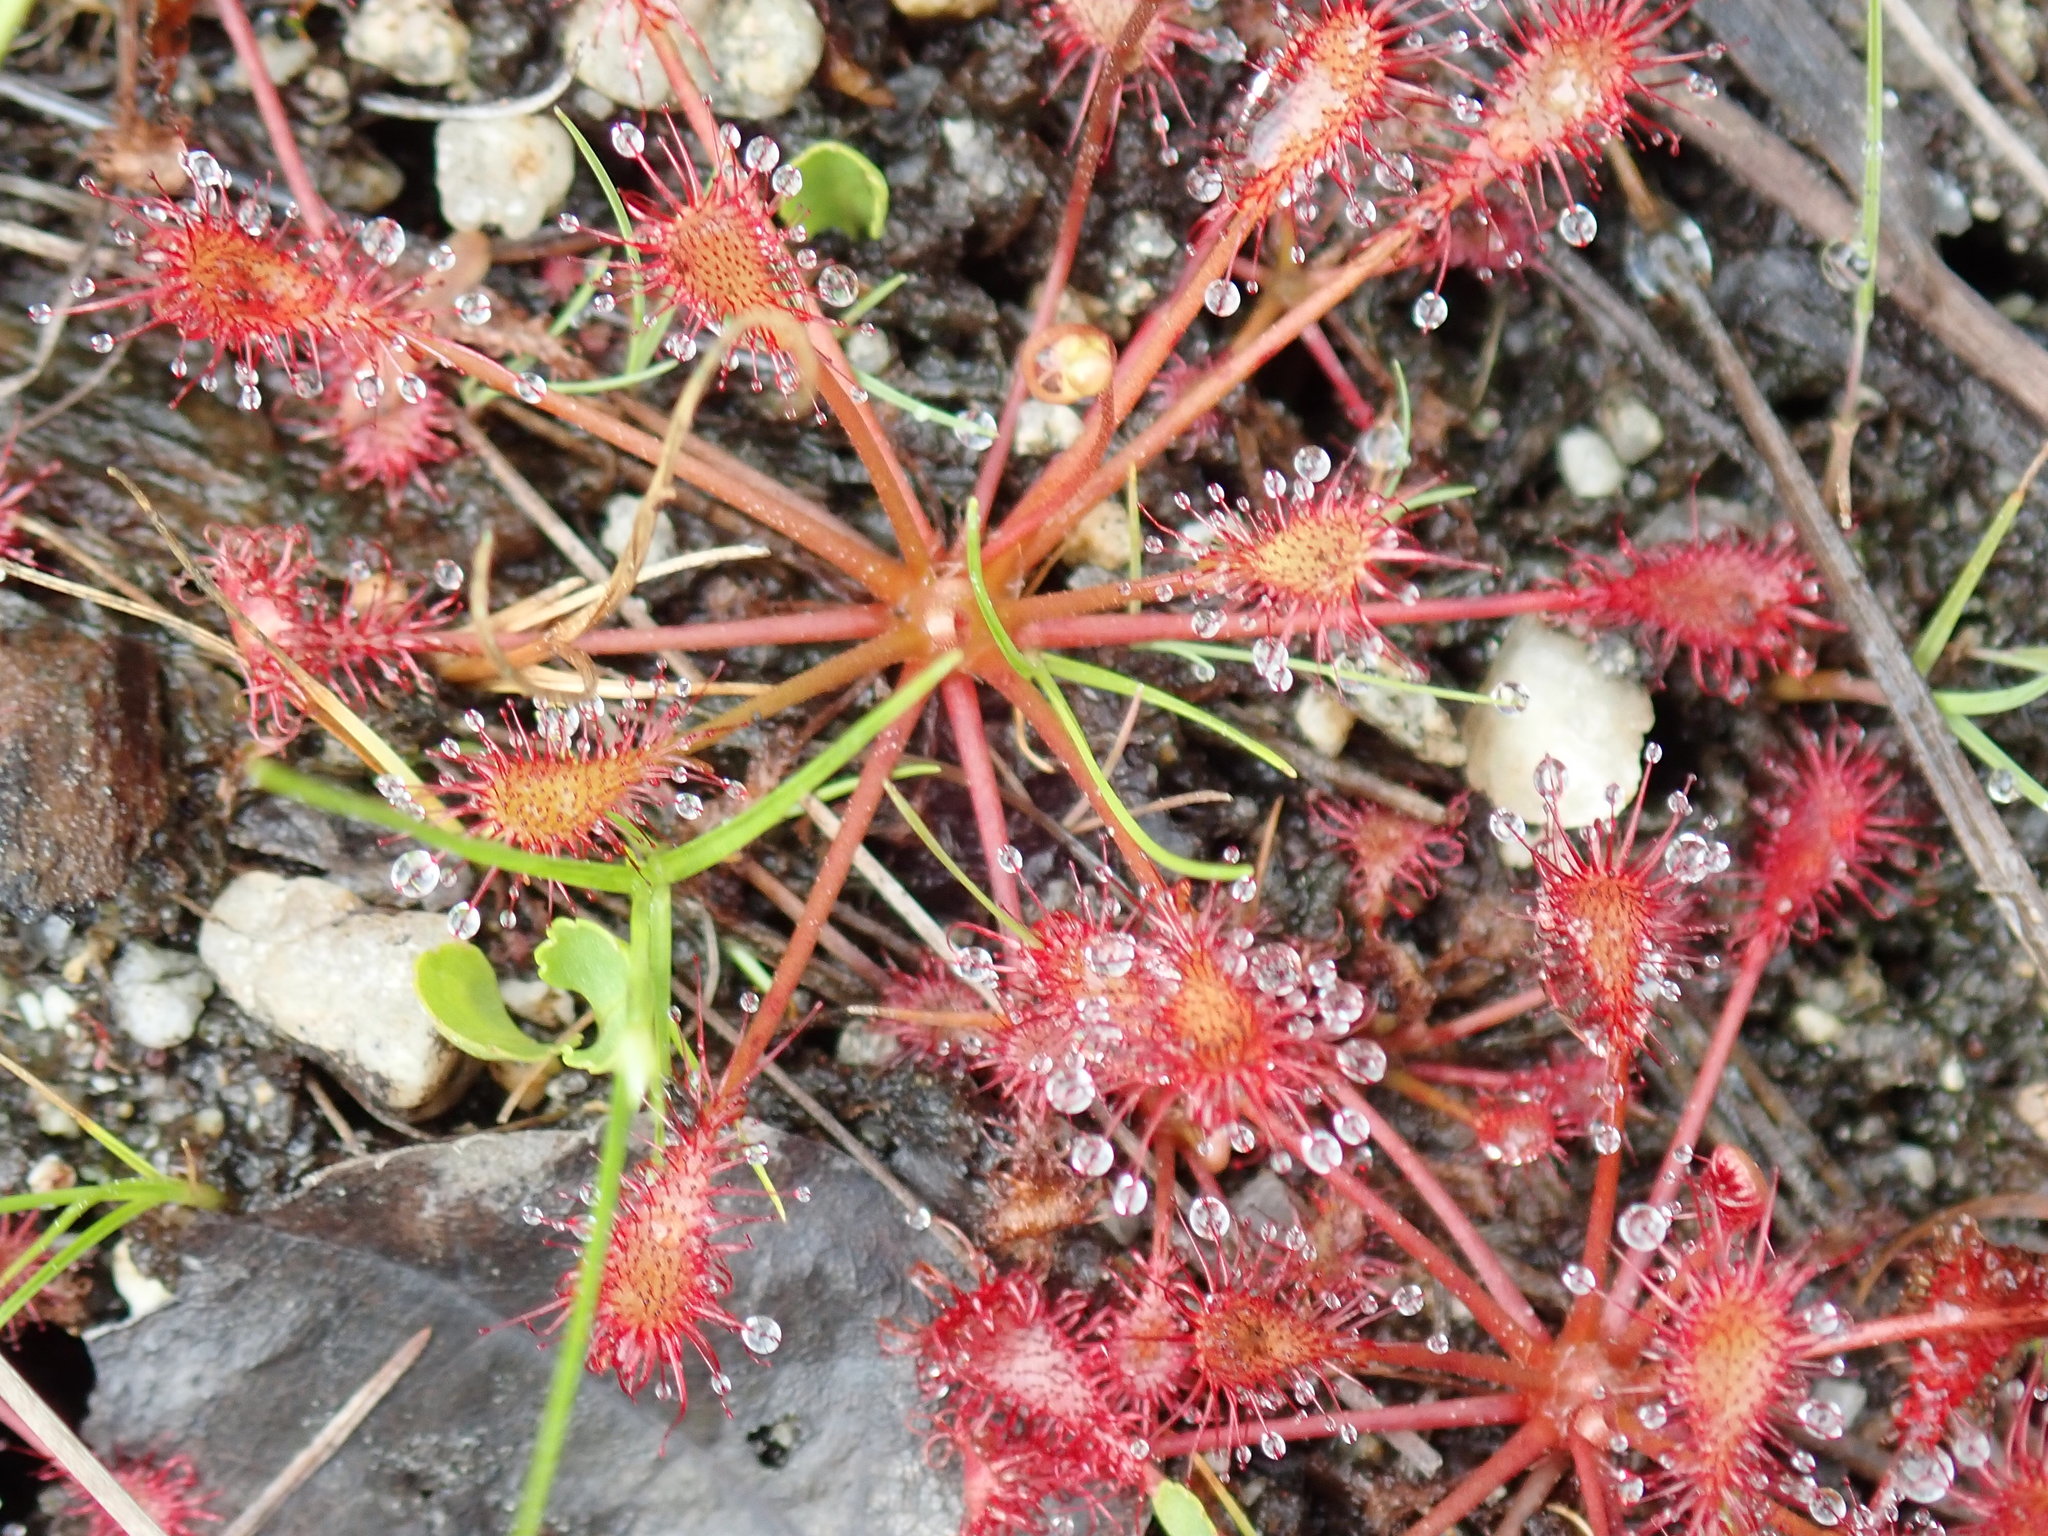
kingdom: Plantae
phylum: Tracheophyta
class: Magnoliopsida
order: Caryophyllales
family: Droseraceae
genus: Drosera
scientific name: Drosera intermedia
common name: Oblong-leaved sundew
